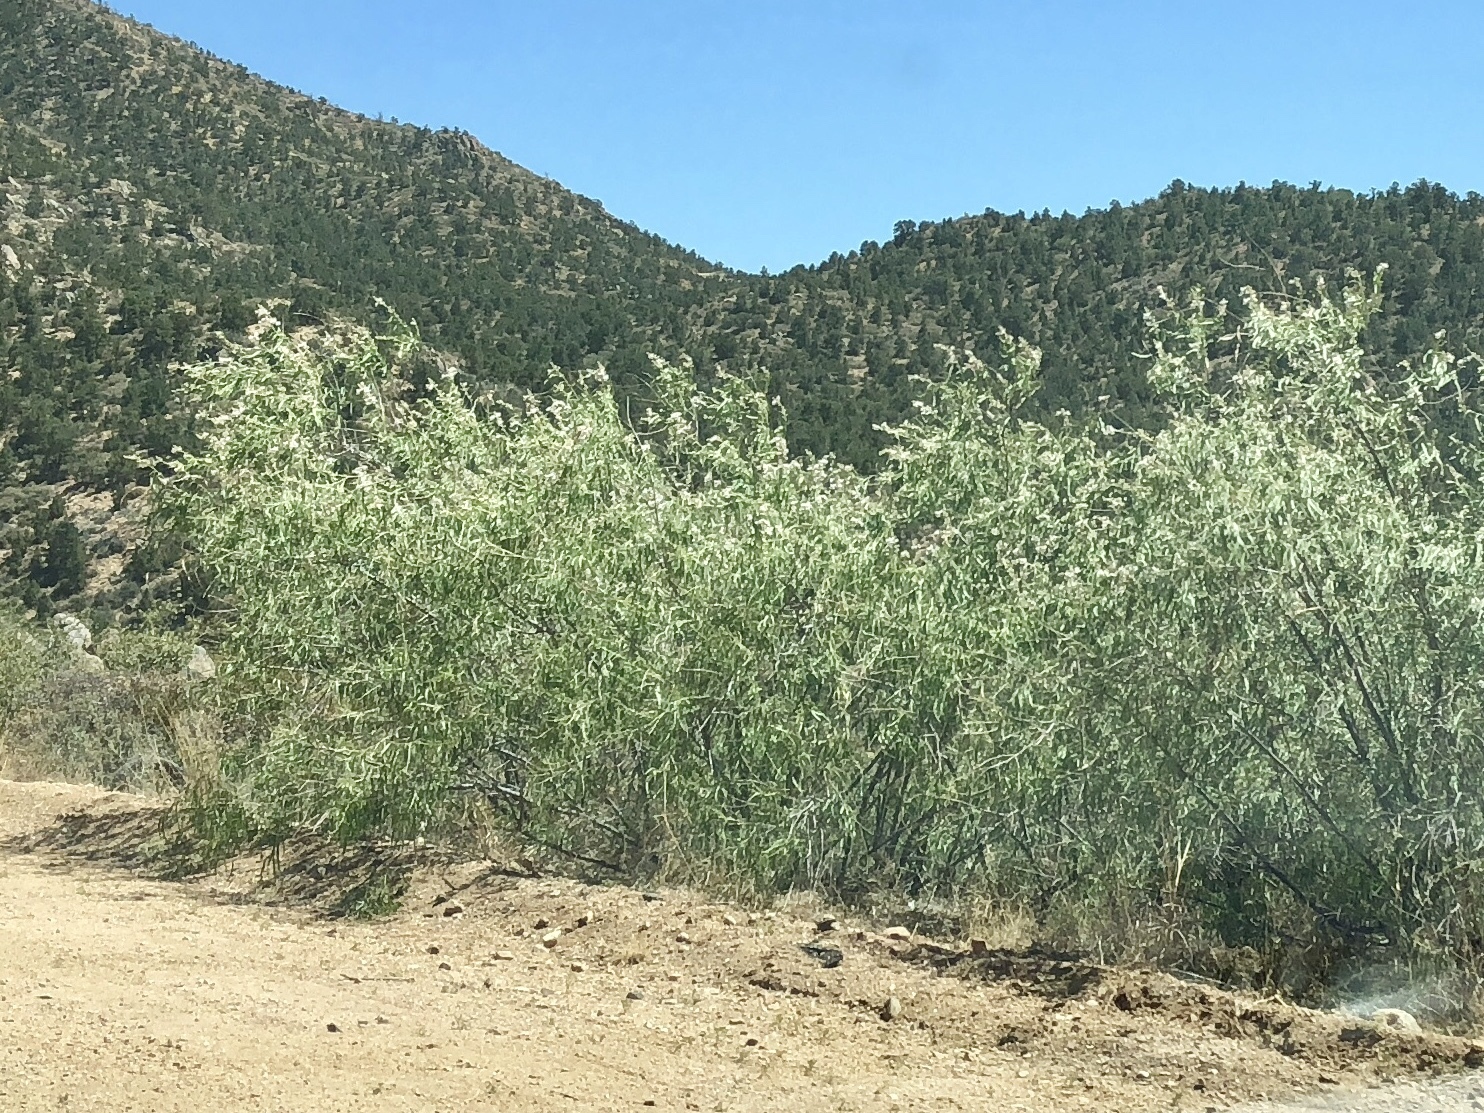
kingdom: Plantae
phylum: Tracheophyta
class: Magnoliopsida
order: Lamiales
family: Bignoniaceae
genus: Chilopsis
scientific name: Chilopsis linearis
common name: Desert-willow
